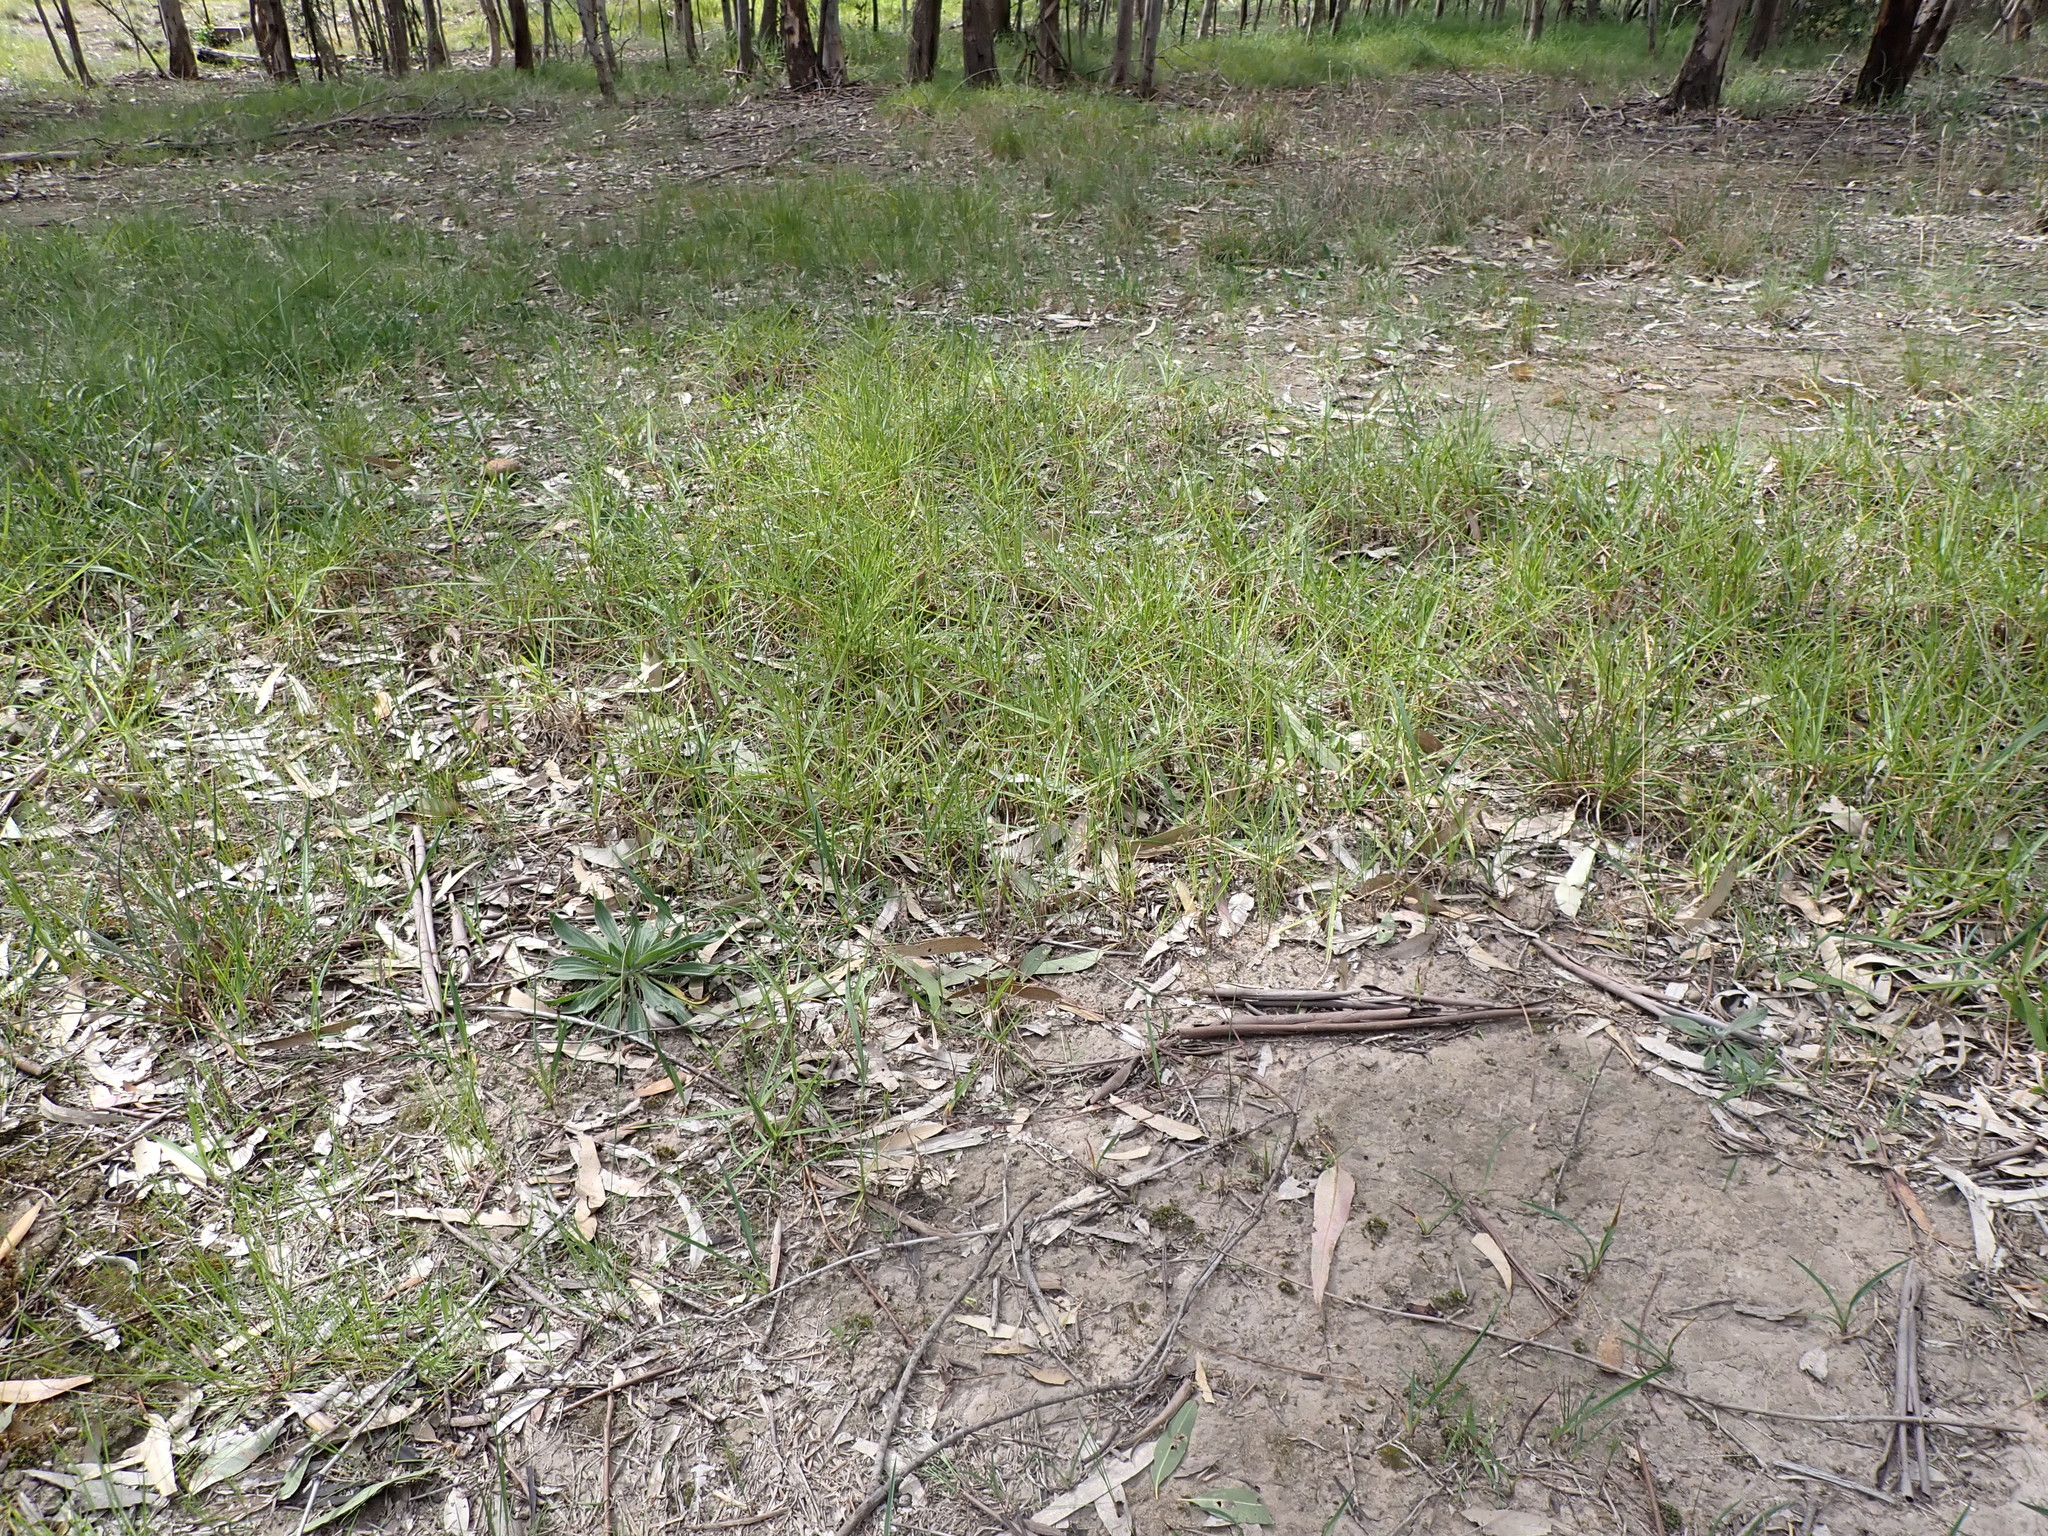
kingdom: Plantae
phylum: Tracheophyta
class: Liliopsida
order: Asparagales
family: Asphodelaceae
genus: Dianella
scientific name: Dianella amoena
